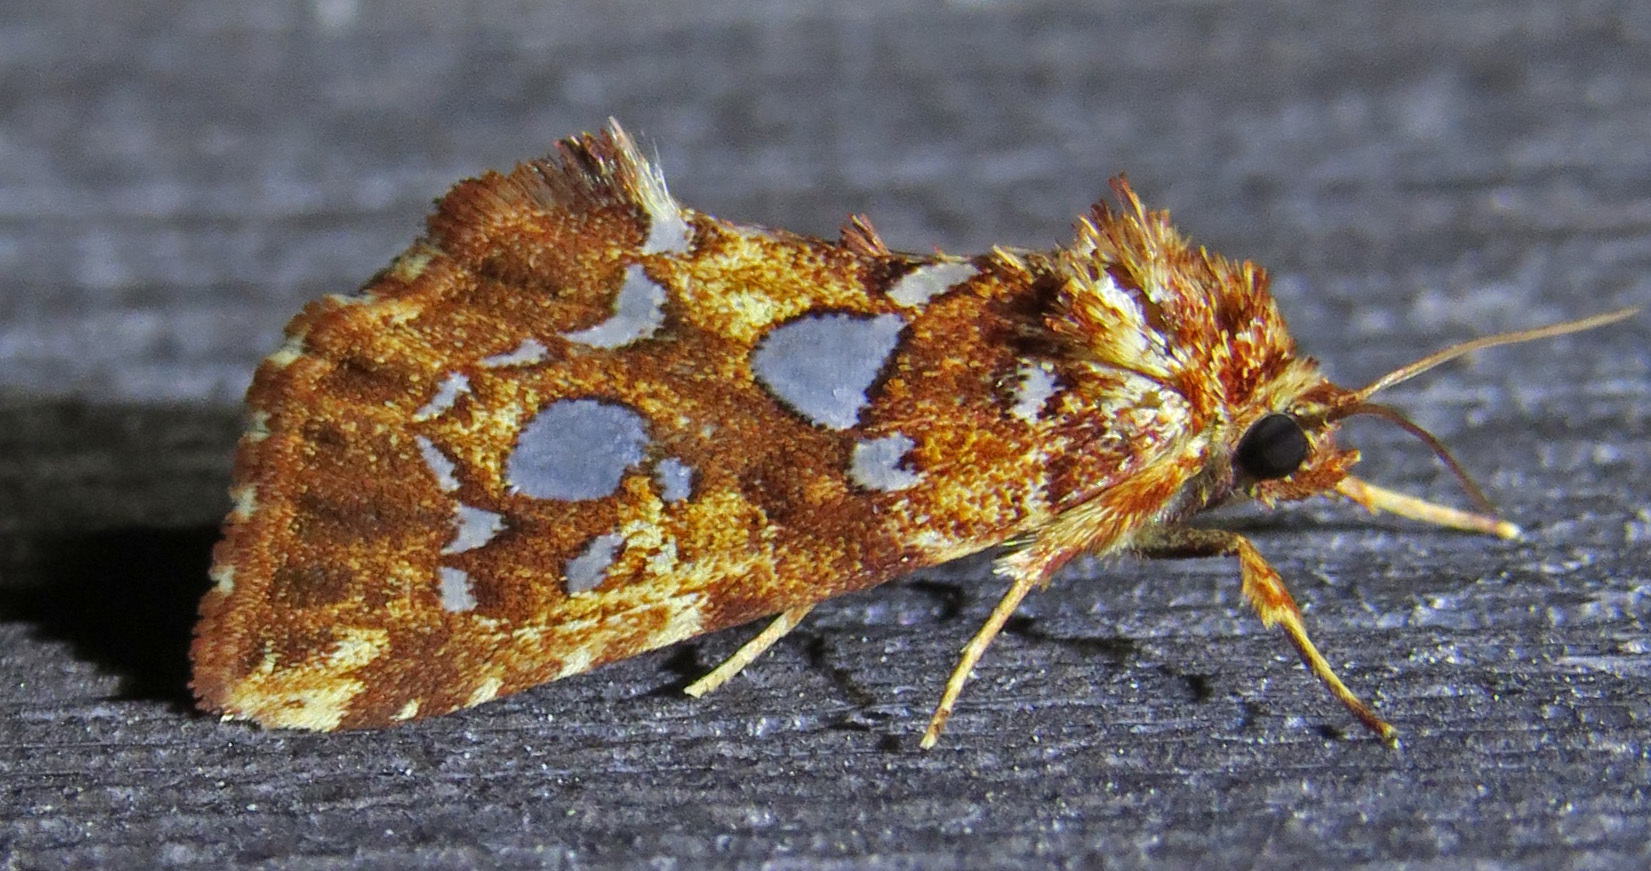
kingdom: Animalia
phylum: Arthropoda
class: Insecta
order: Lepidoptera
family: Noctuidae
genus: Callopistria
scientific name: Callopistria cordata
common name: Silver-spotted fern moth
